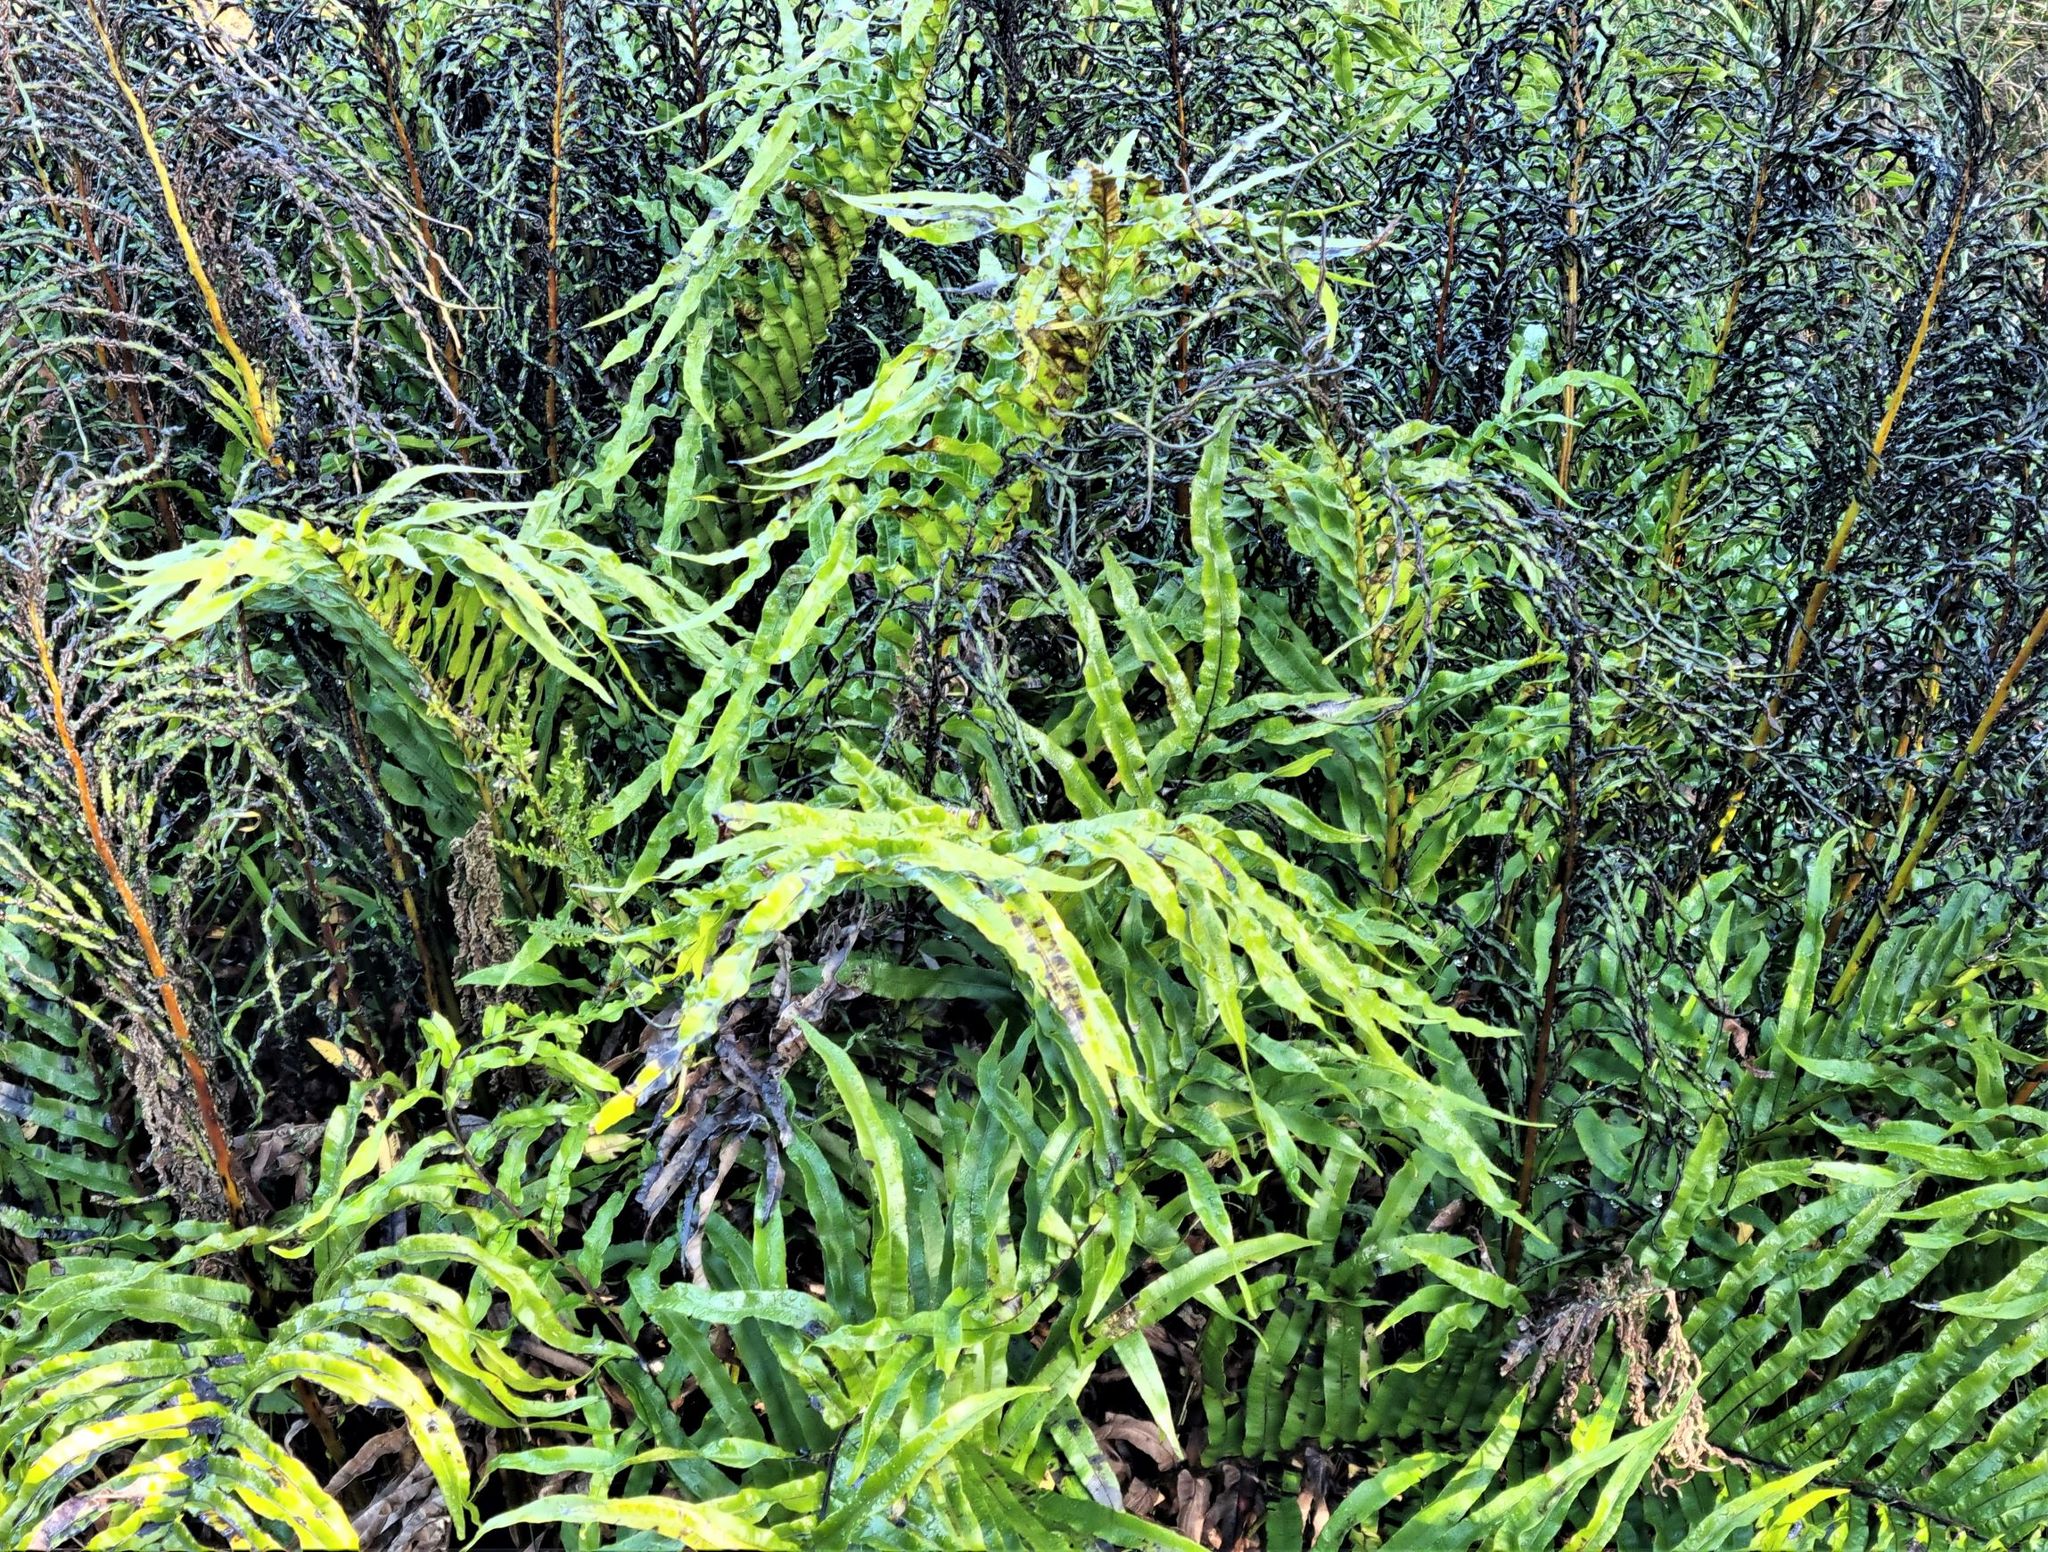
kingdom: Plantae
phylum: Tracheophyta
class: Polypodiopsida
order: Polypodiales
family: Blechnaceae
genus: Parablechnum
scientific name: Parablechnum novae-zelandiae
